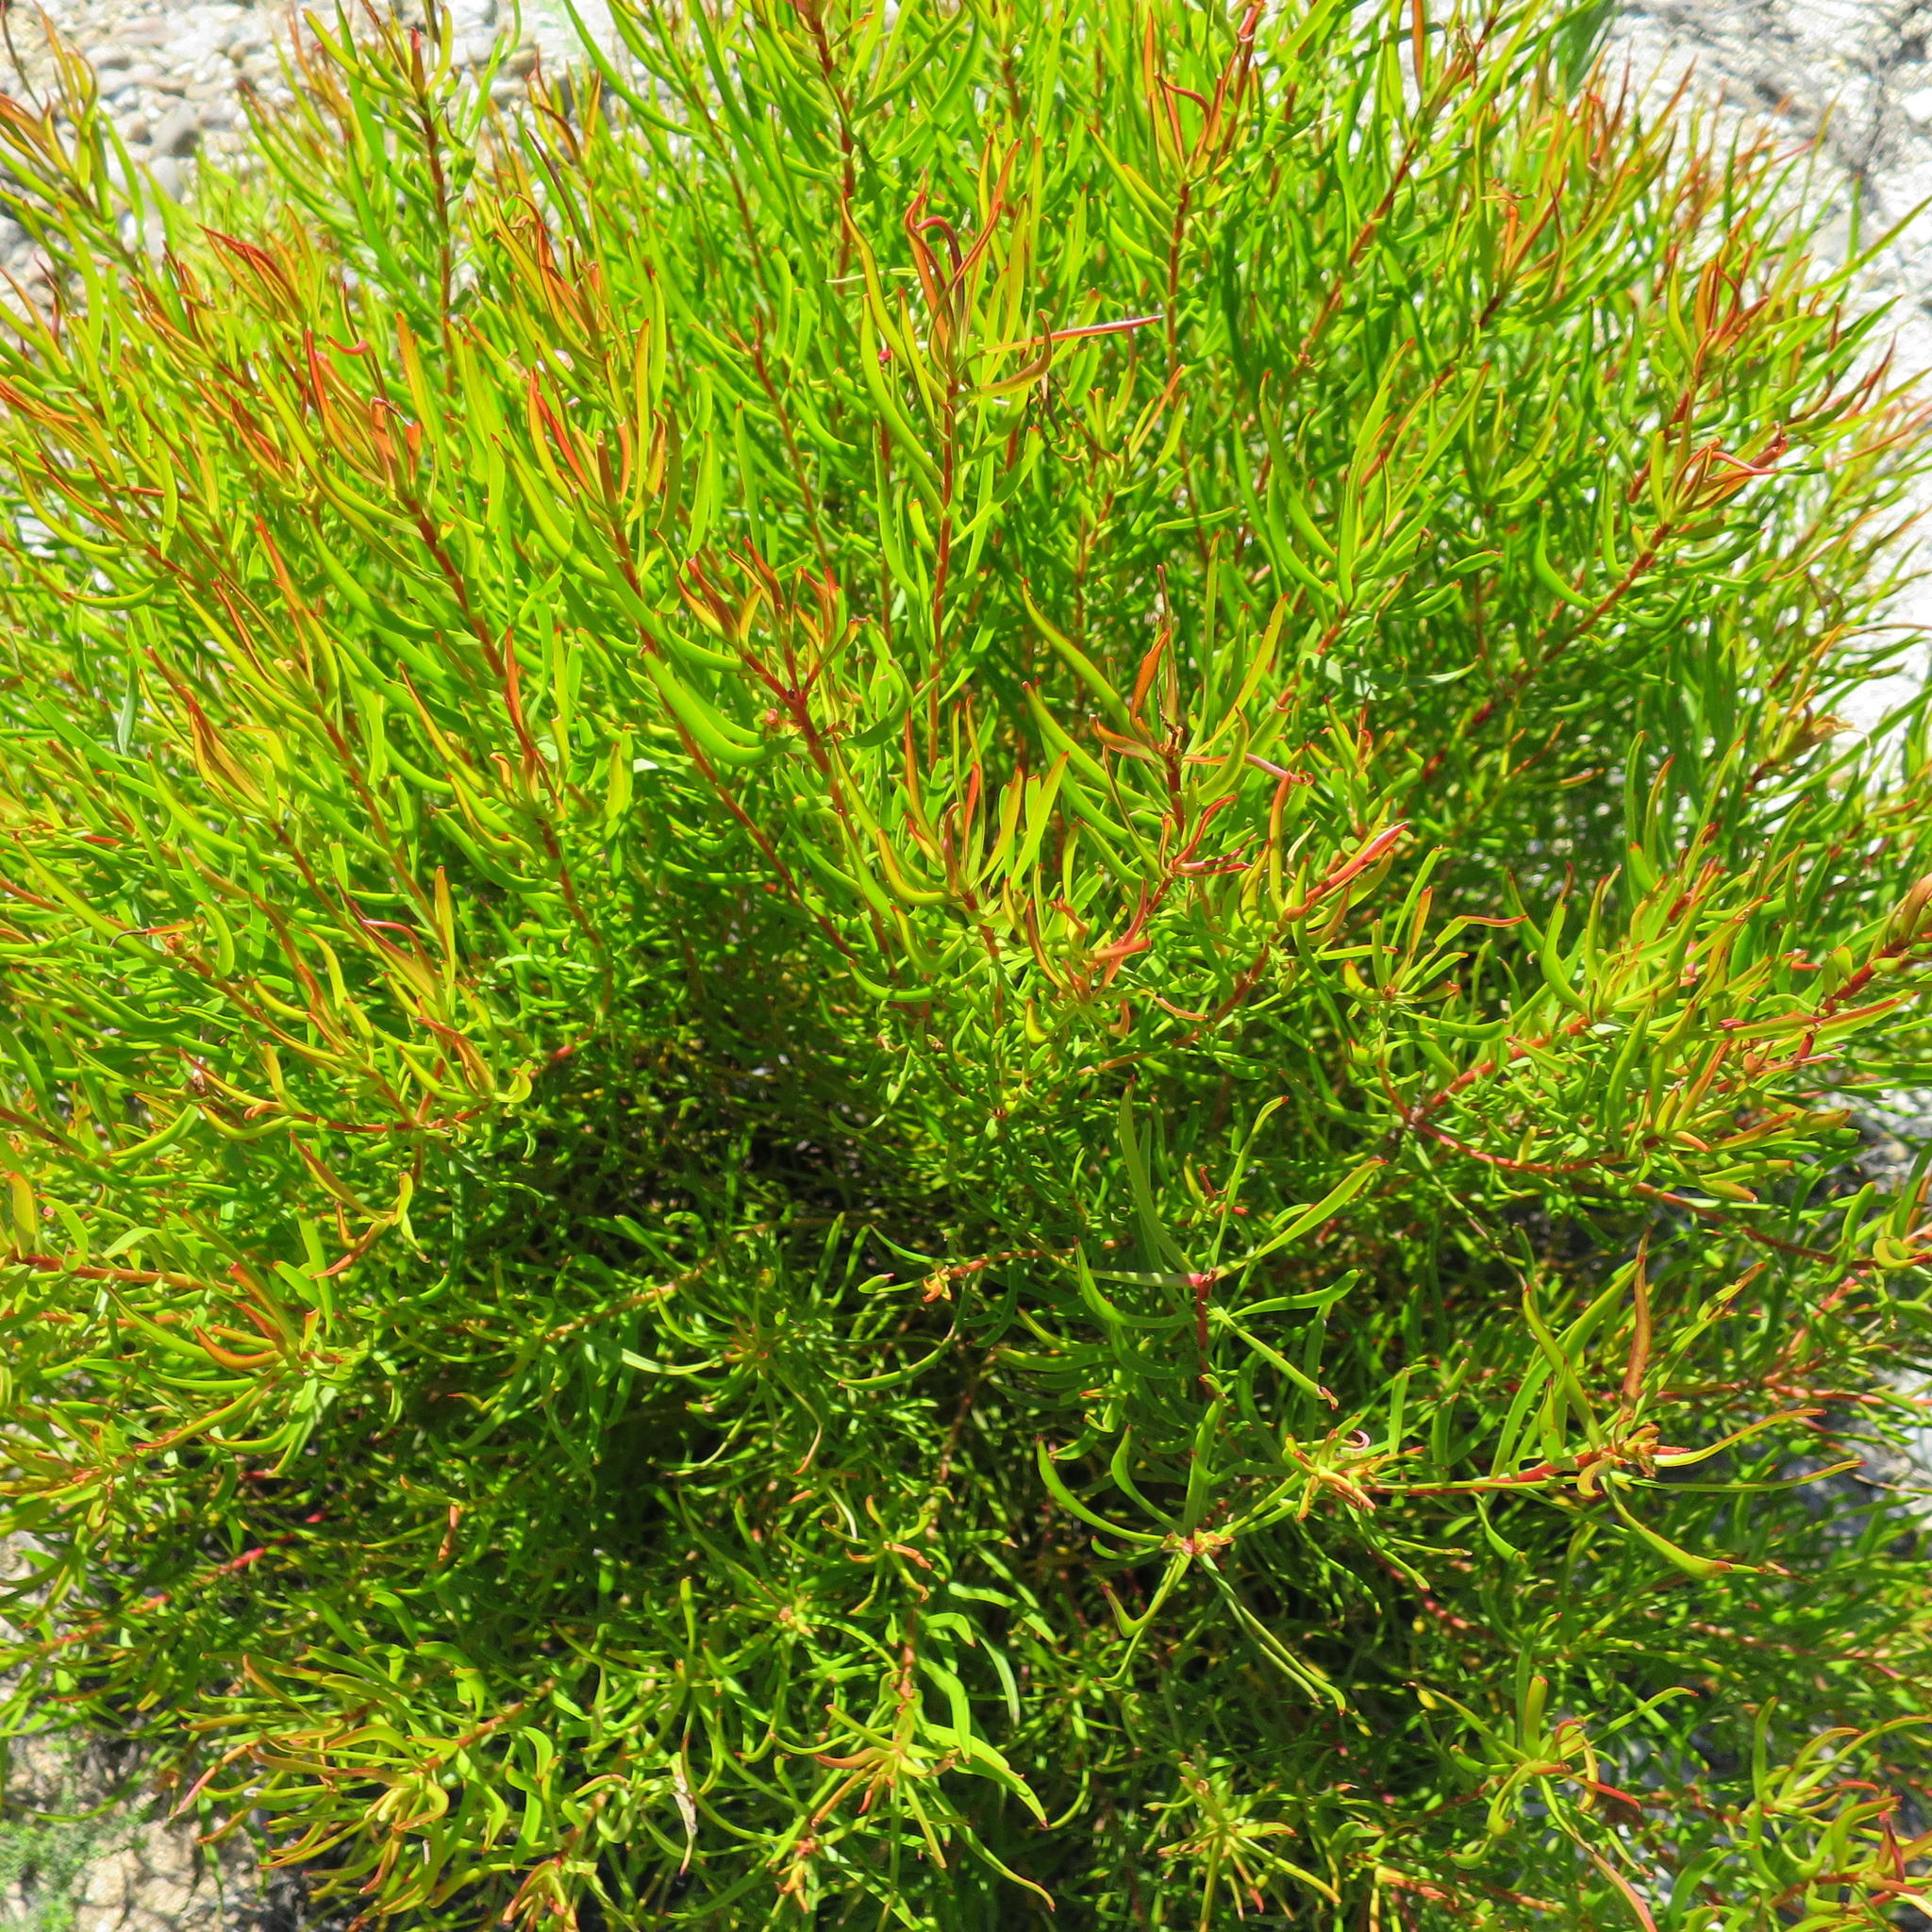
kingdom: Plantae
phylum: Tracheophyta
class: Magnoliopsida
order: Proteales
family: Proteaceae
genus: Leucadendron
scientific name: Leucadendron spissifolium
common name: Spear-leaf conebush
